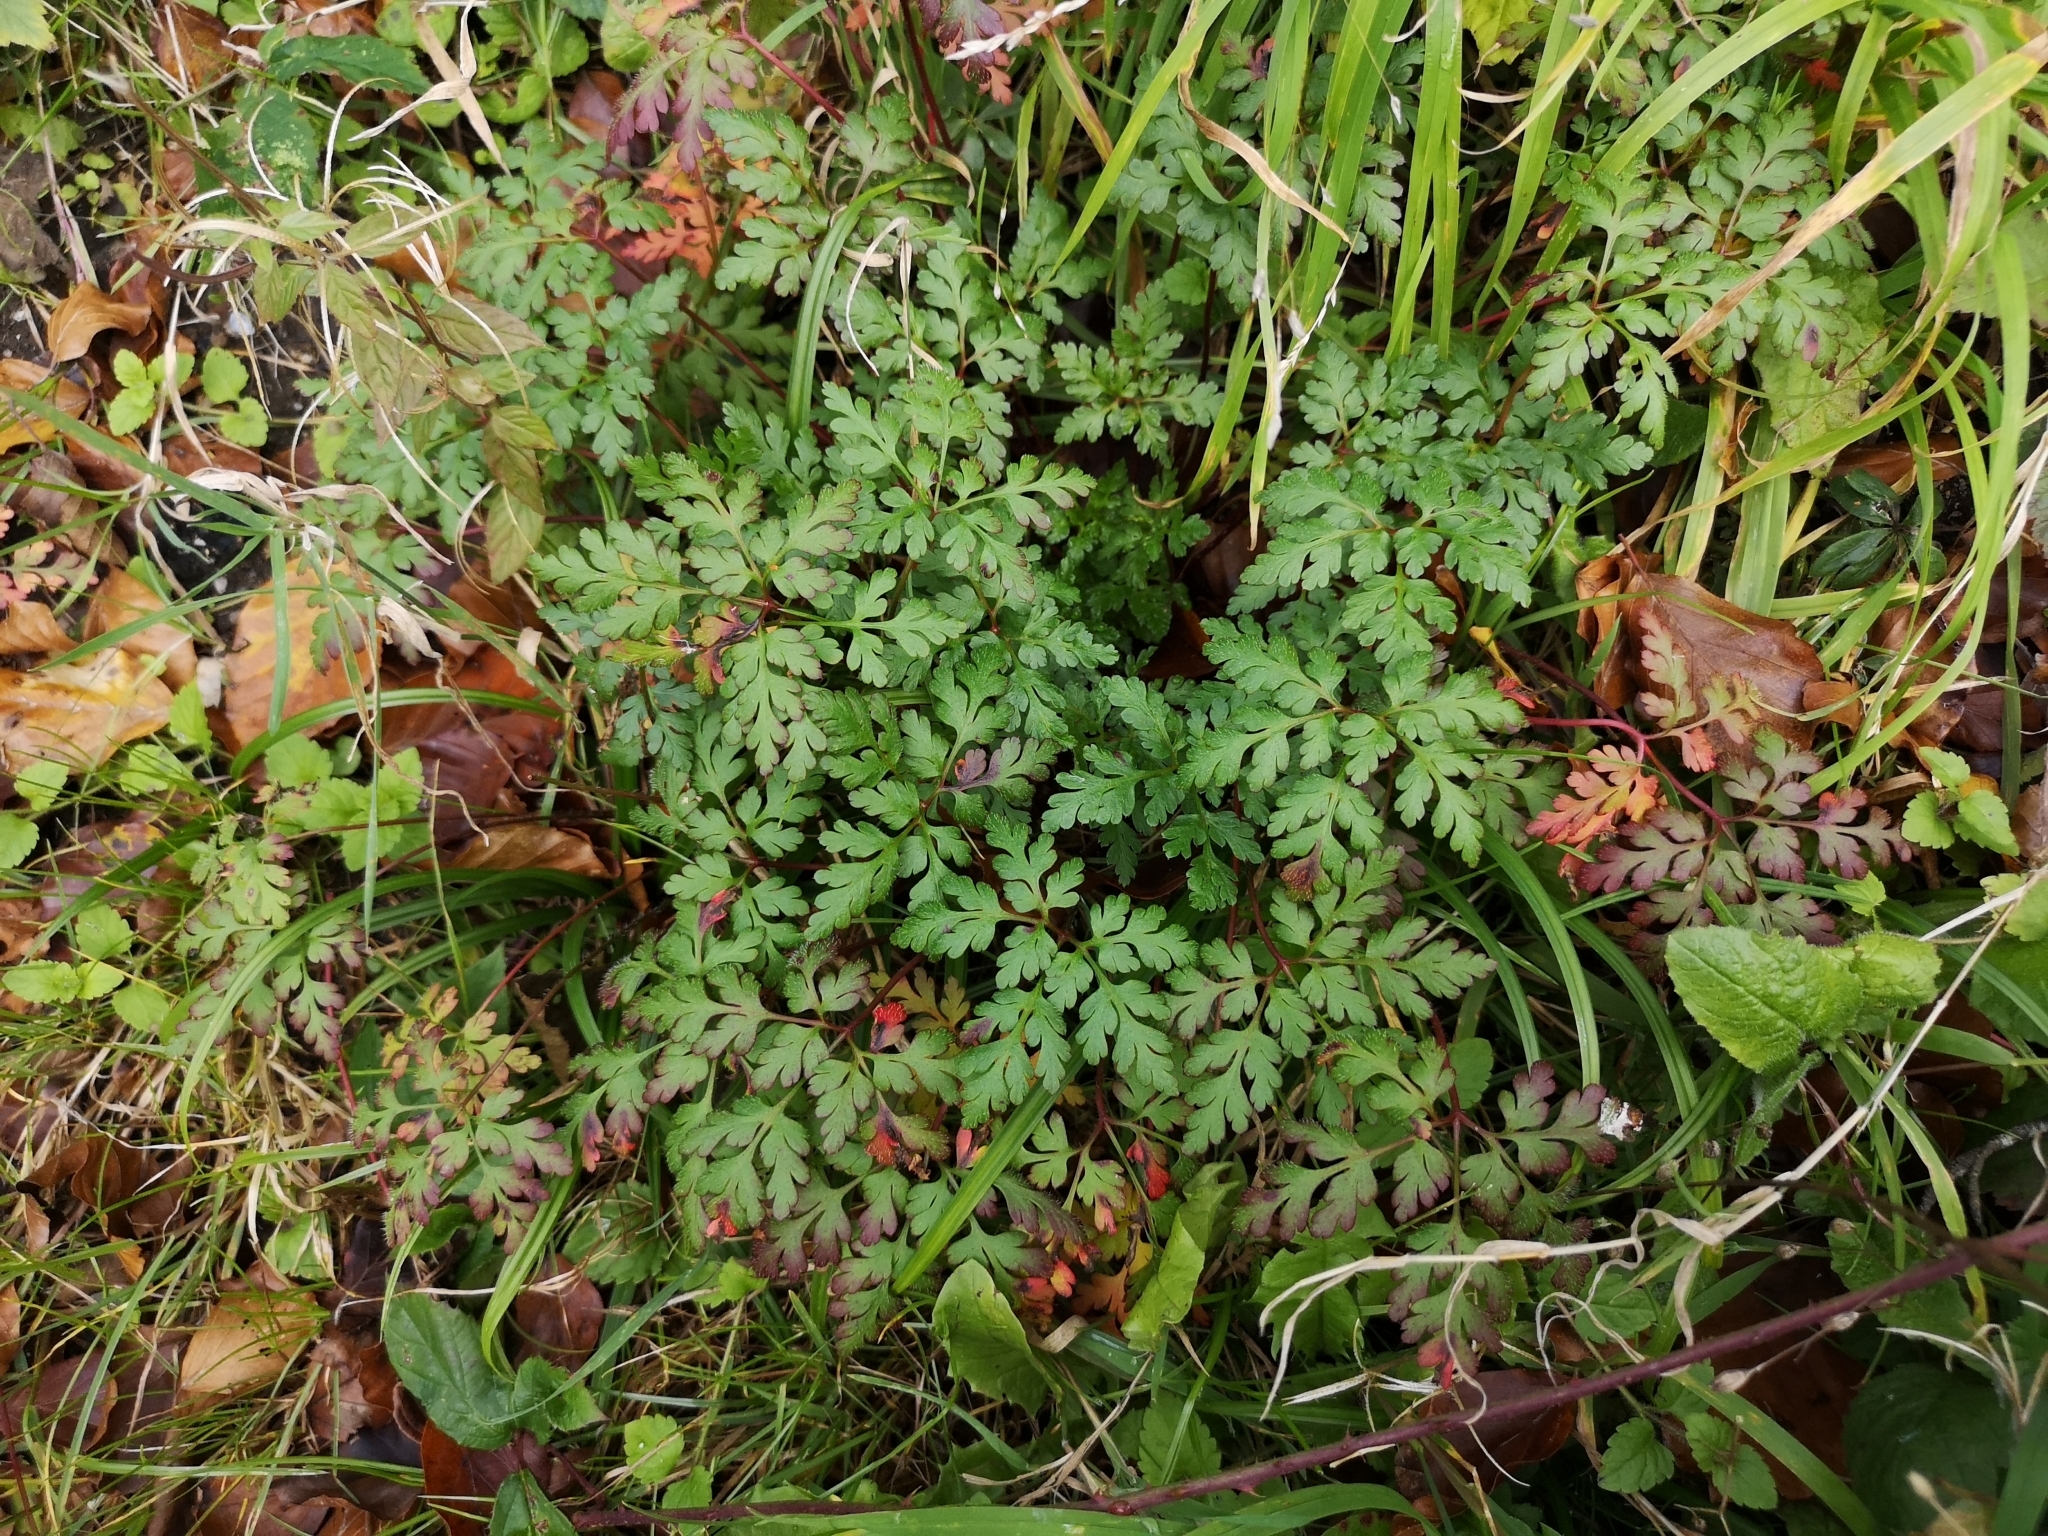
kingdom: Plantae
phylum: Tracheophyta
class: Magnoliopsida
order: Geraniales
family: Geraniaceae
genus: Geranium
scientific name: Geranium robertianum
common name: Herb-robert
